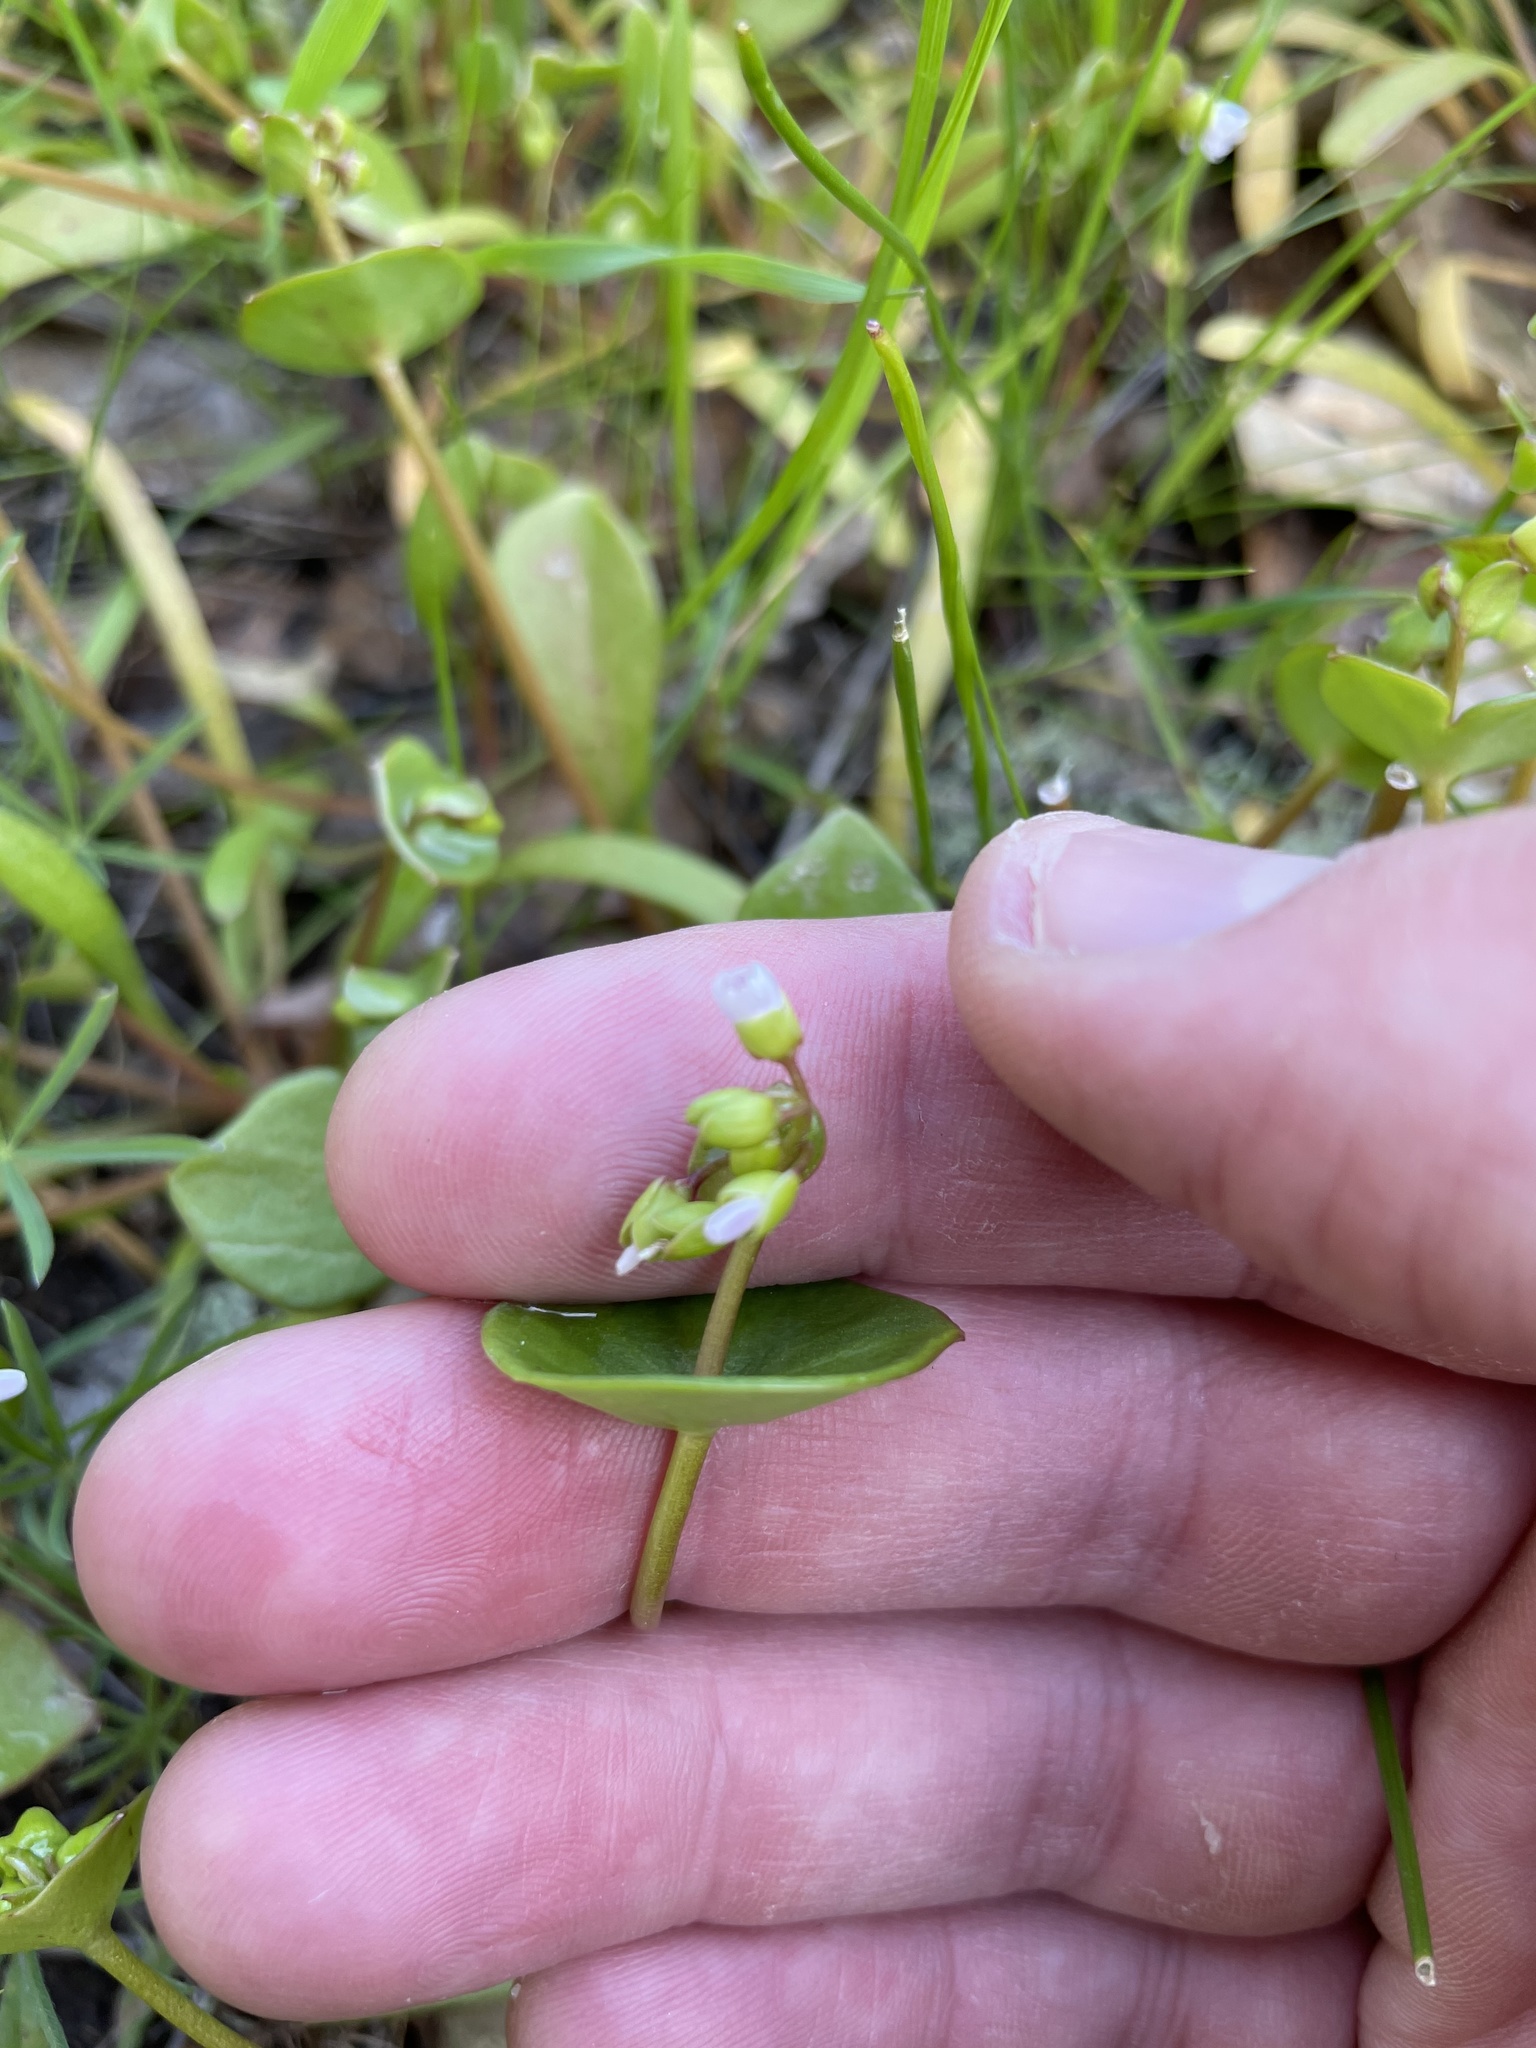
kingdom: Plantae
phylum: Tracheophyta
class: Magnoliopsida
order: Caryophyllales
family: Montiaceae
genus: Claytonia
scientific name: Claytonia perfoliata
